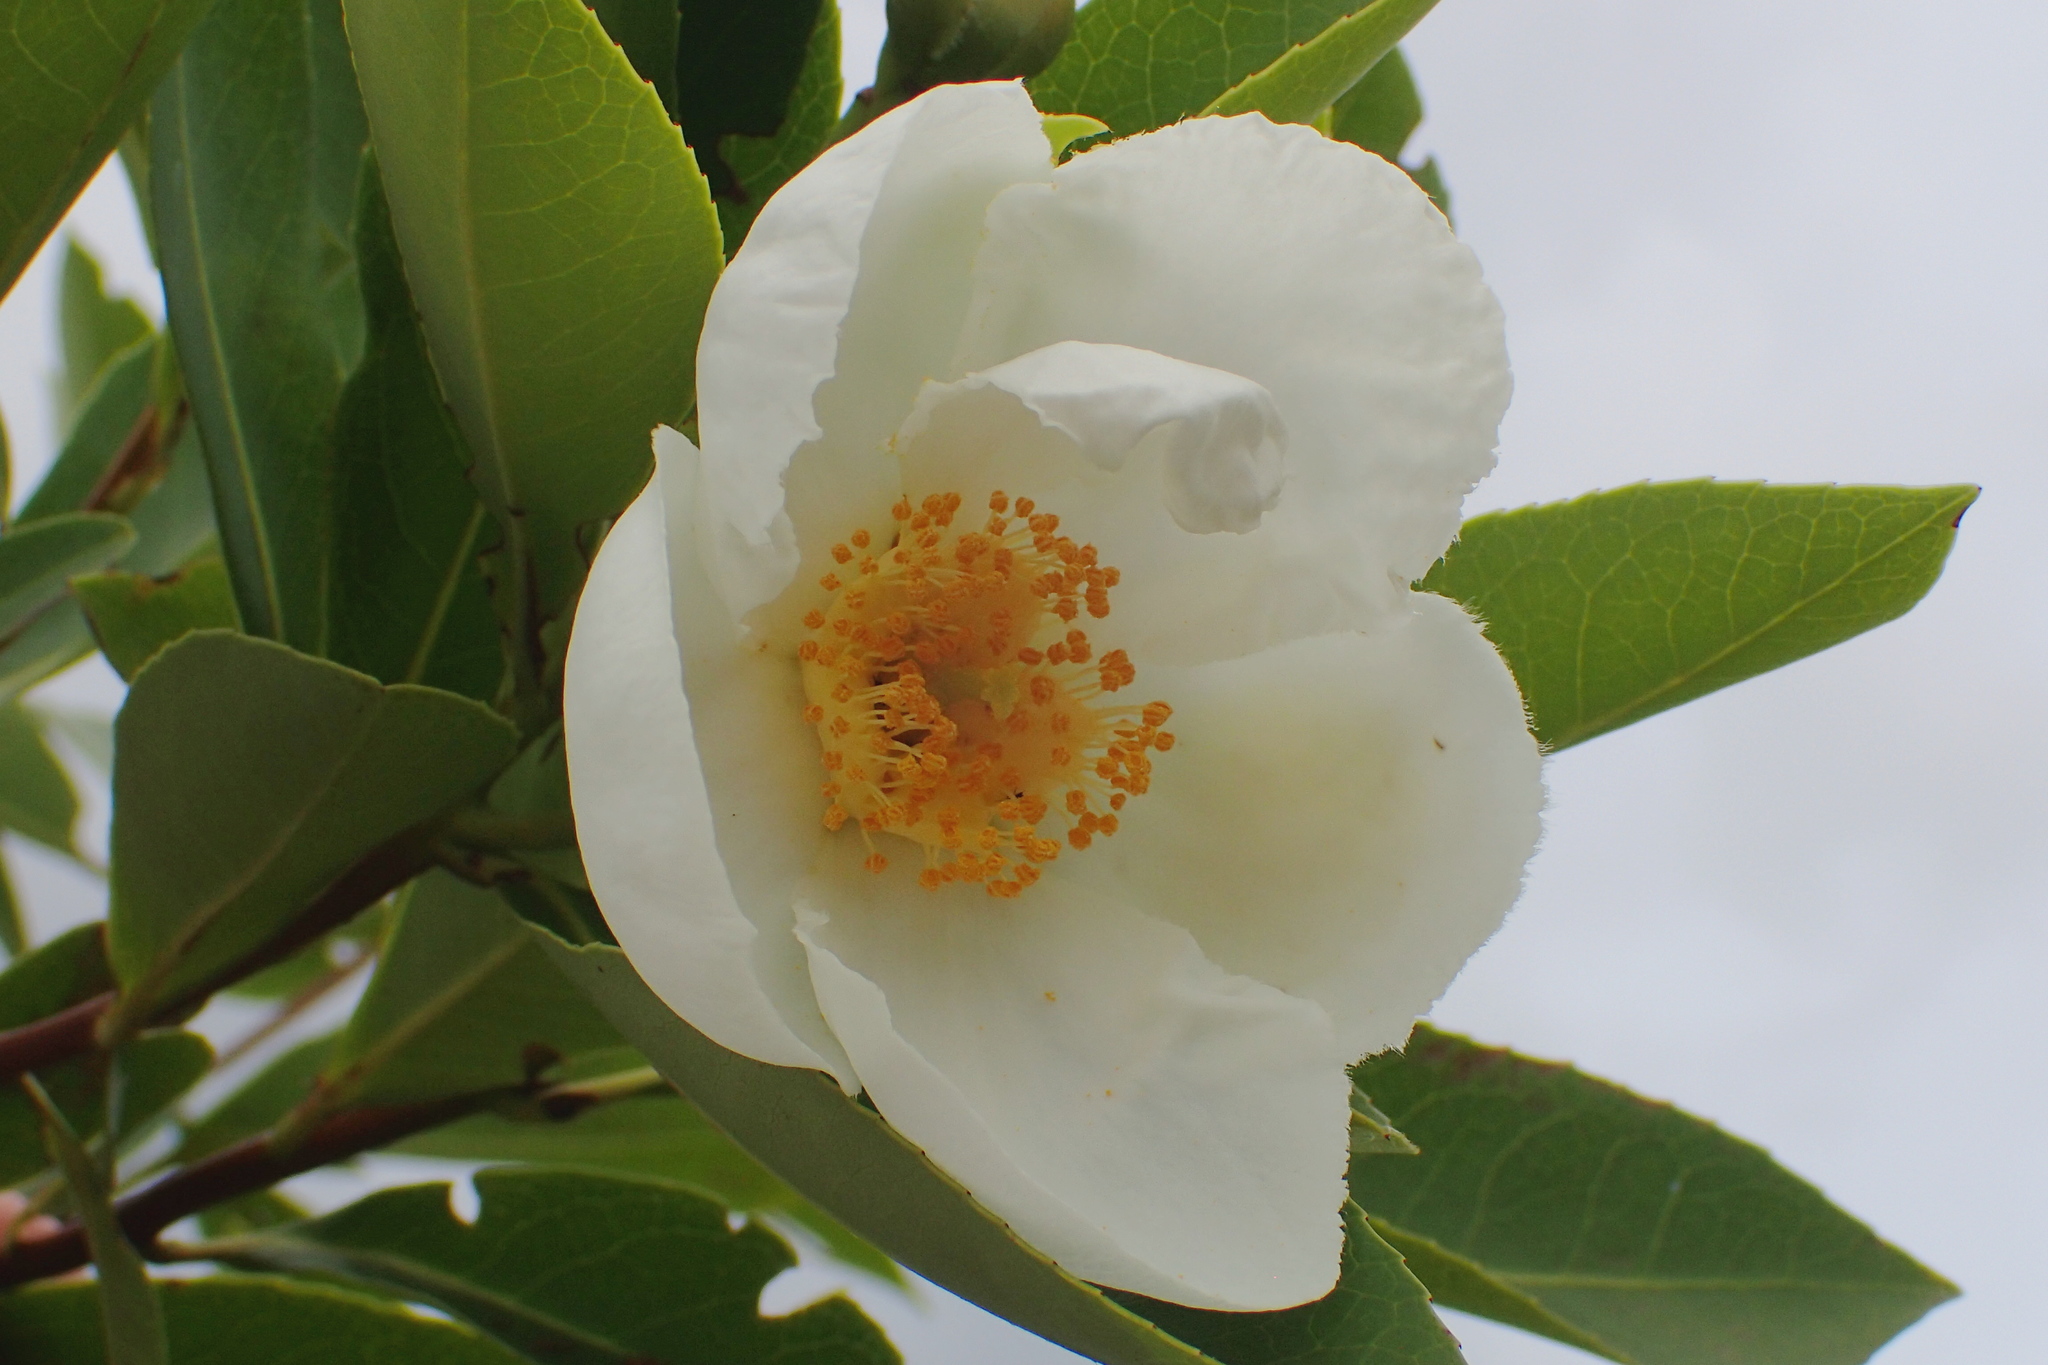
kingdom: Plantae
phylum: Tracheophyta
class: Magnoliopsida
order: Ericales
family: Theaceae
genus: Gordonia
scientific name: Gordonia lasianthus
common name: Loblolly bay
